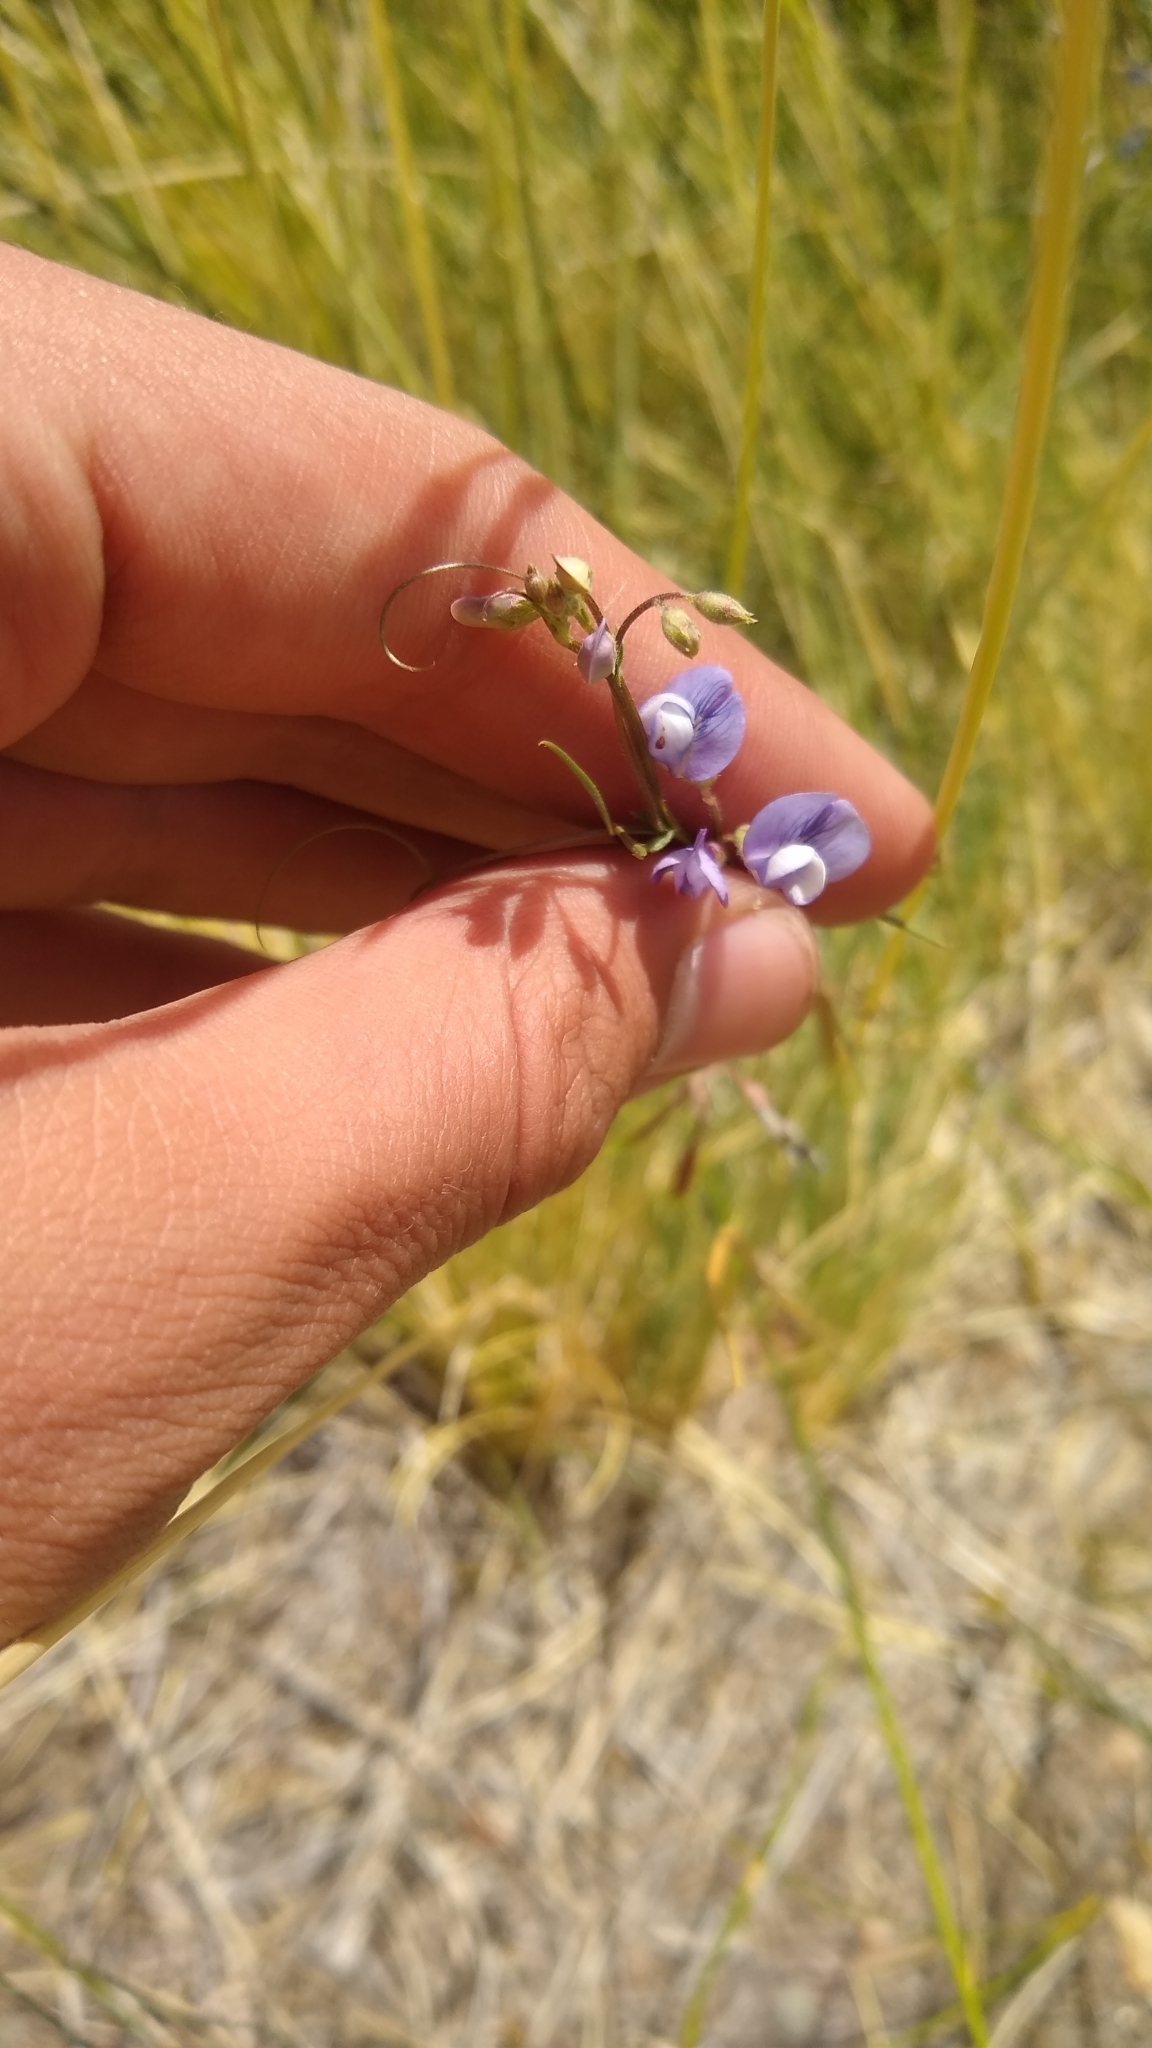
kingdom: Plantae
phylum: Tracheophyta
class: Magnoliopsida
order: Fabales
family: Fabaceae
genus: Vicia
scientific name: Vicia magellanica
